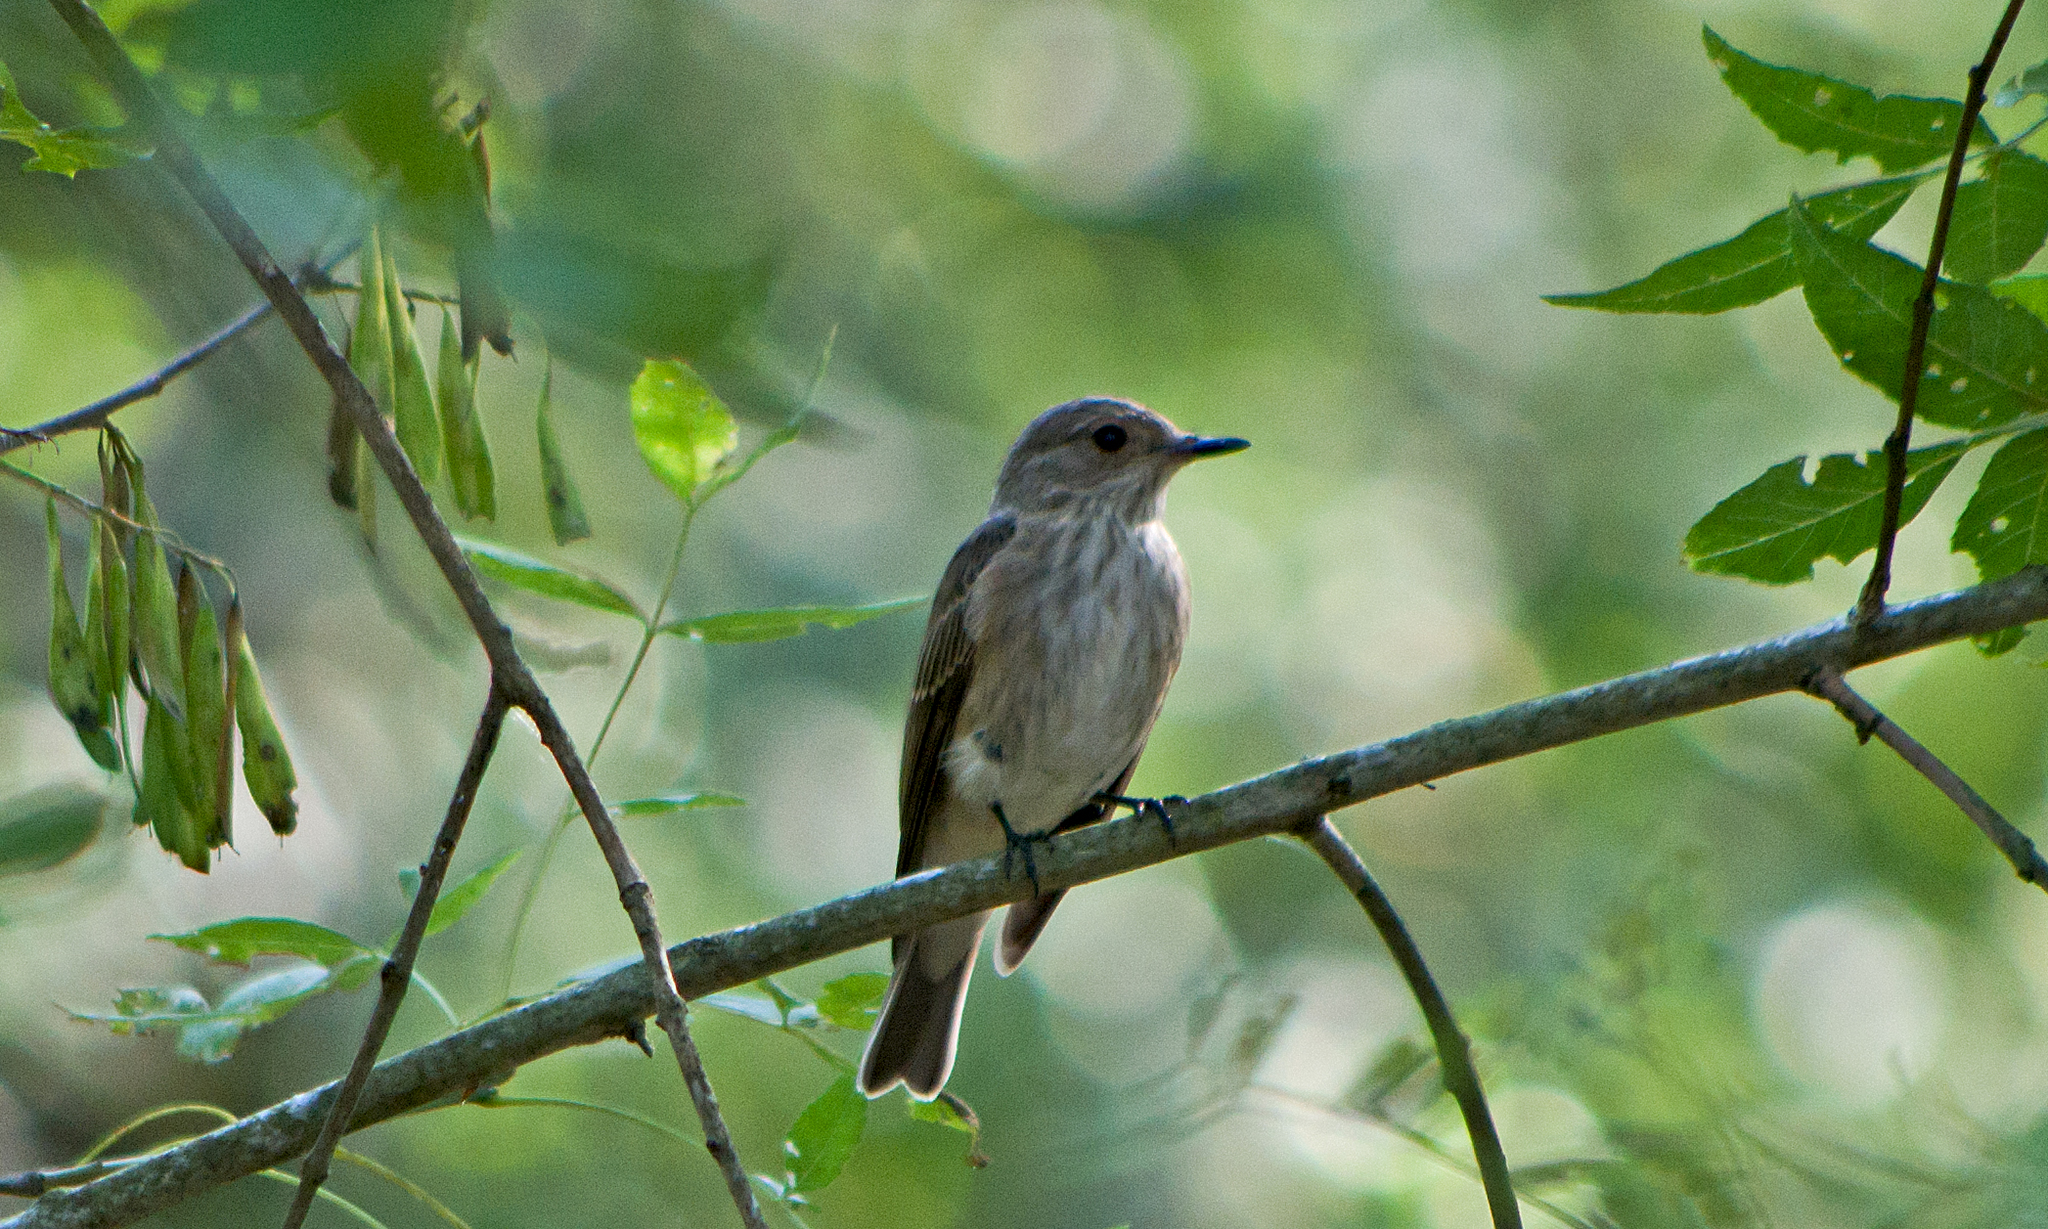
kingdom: Animalia
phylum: Chordata
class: Aves
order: Passeriformes
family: Muscicapidae
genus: Muscicapa
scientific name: Muscicapa striata
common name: Spotted flycatcher
